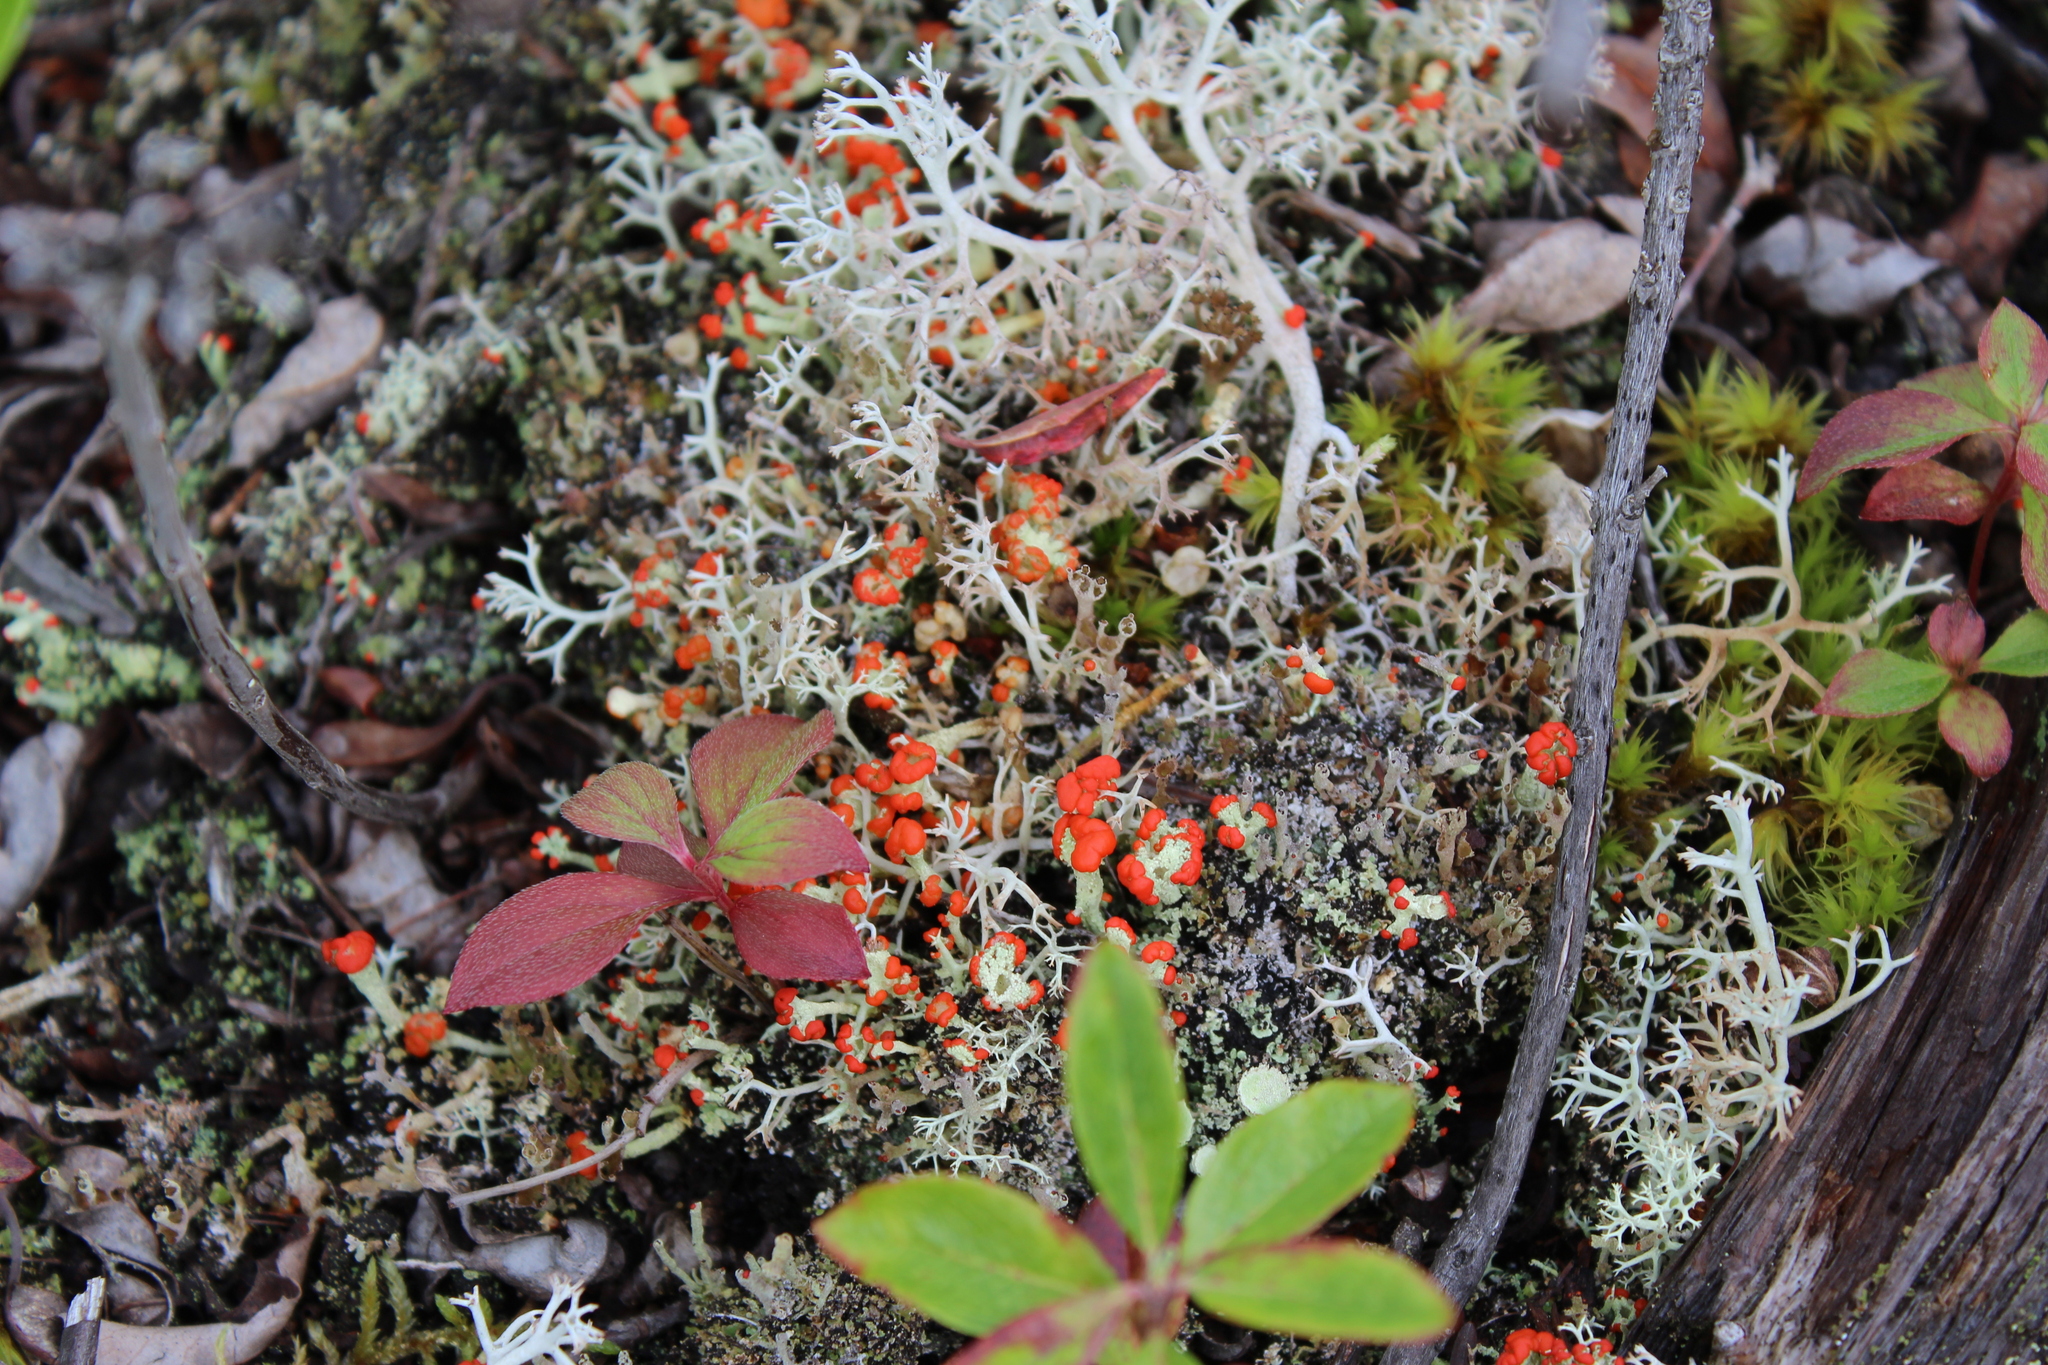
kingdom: Fungi
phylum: Ascomycota
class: Lecanoromycetes
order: Lecanorales
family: Cladoniaceae
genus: Cladonia
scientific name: Cladonia cristatella
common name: British soldier lichen
